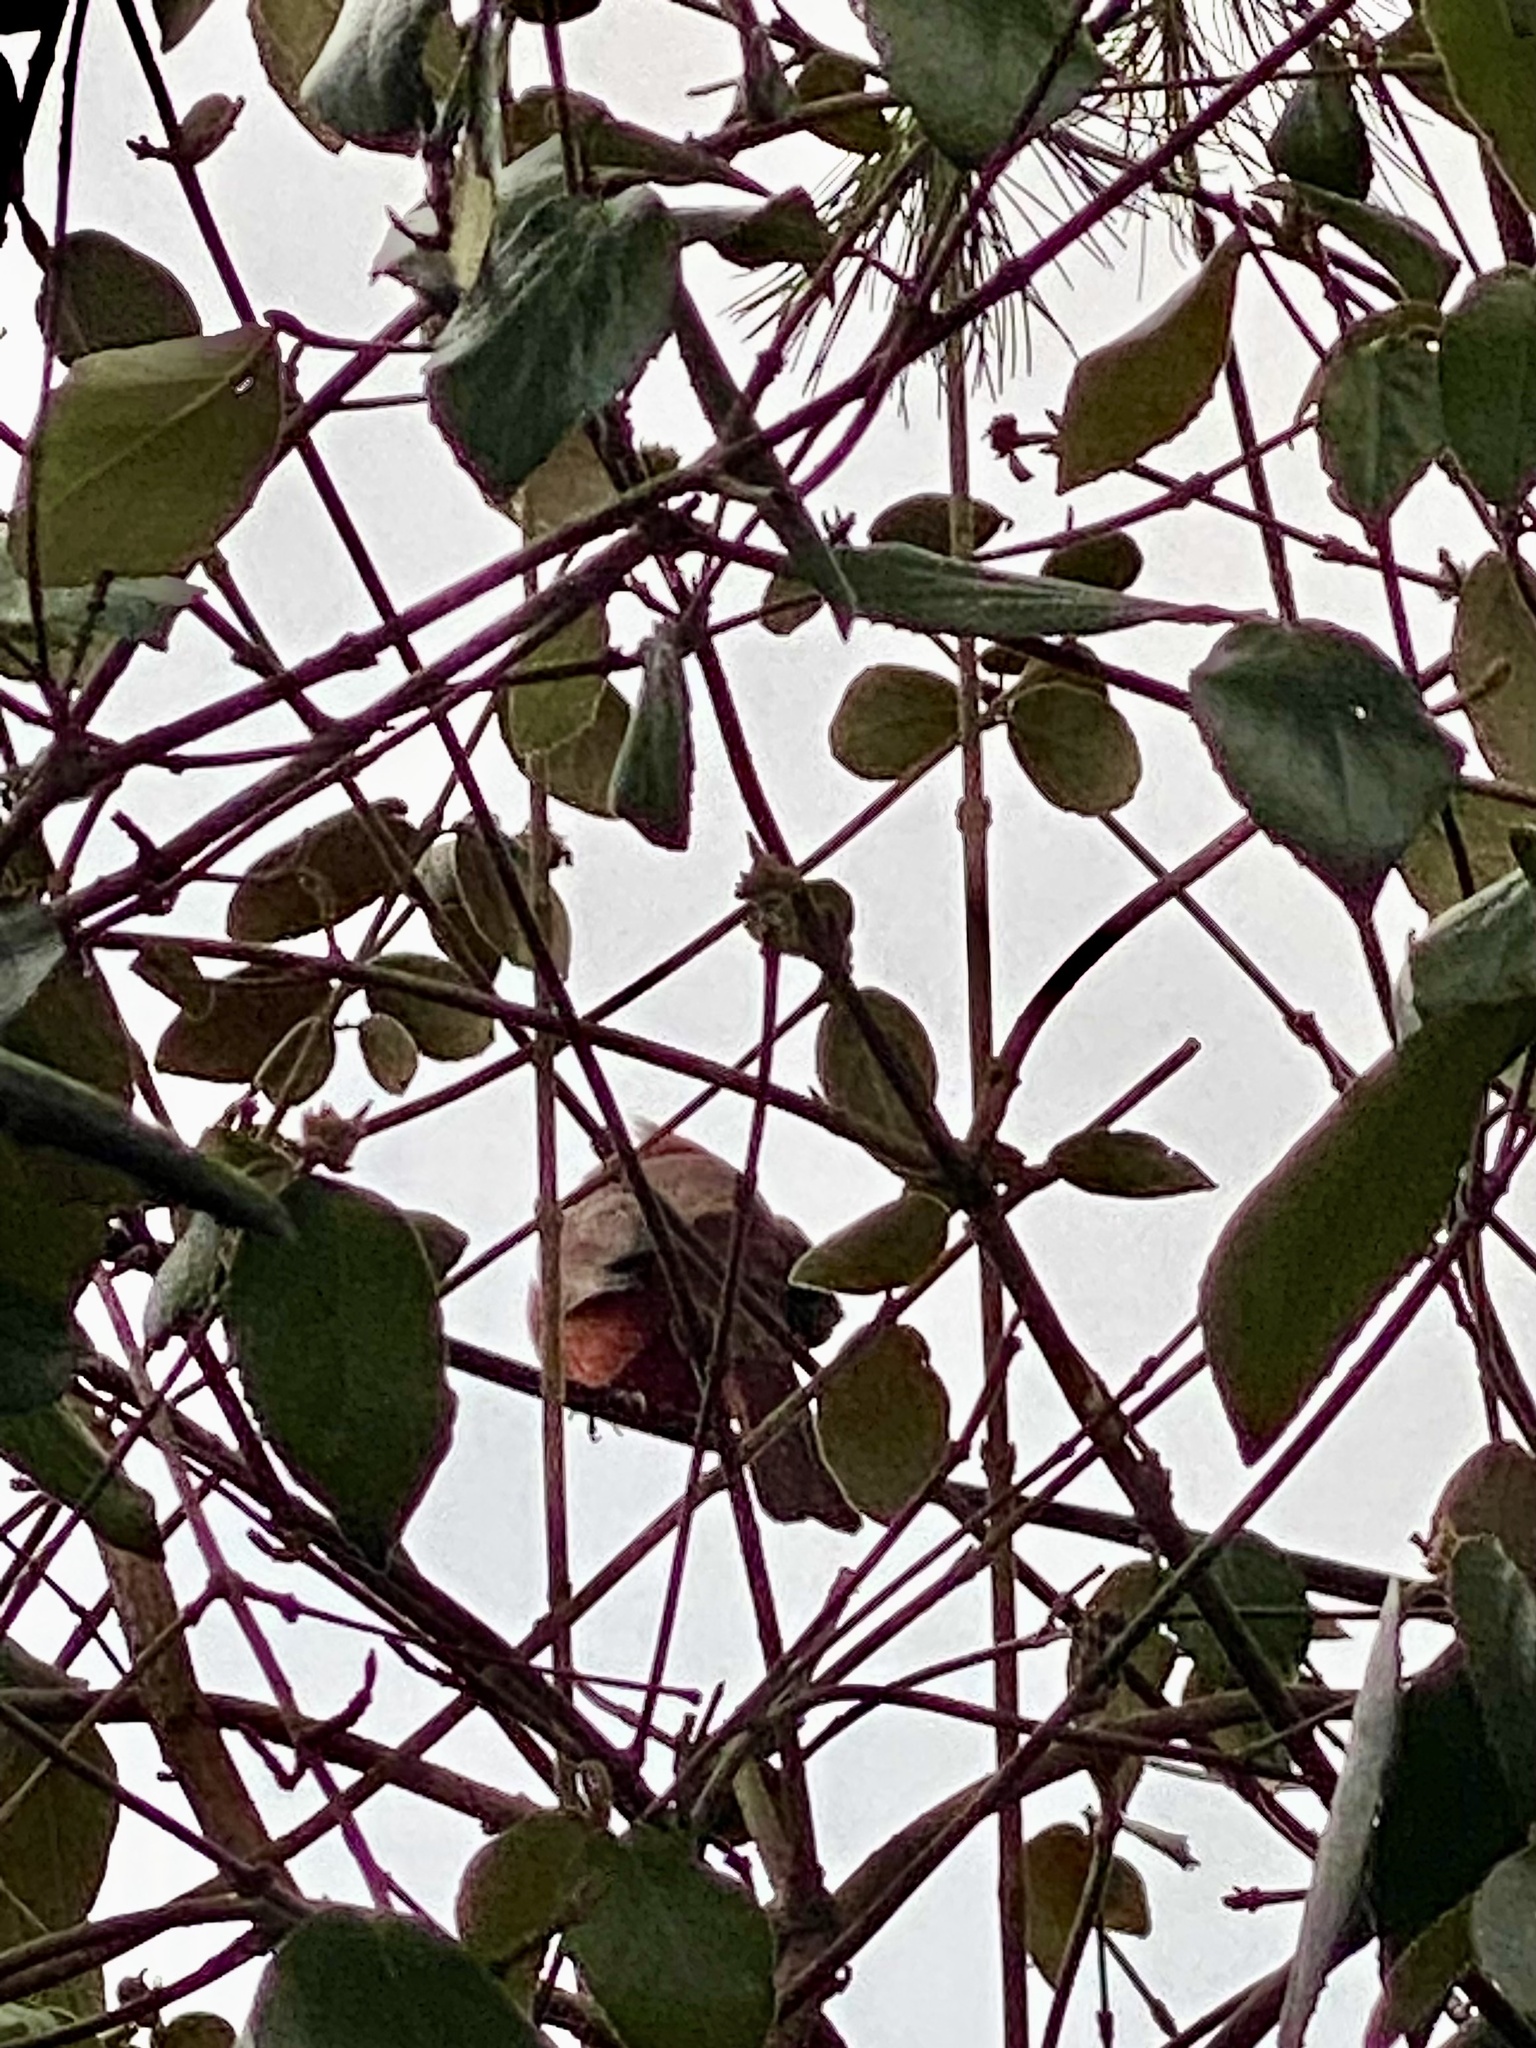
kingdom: Animalia
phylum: Chordata
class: Aves
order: Passeriformes
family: Cardinalidae
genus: Cardinalis
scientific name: Cardinalis cardinalis
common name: Northern cardinal
